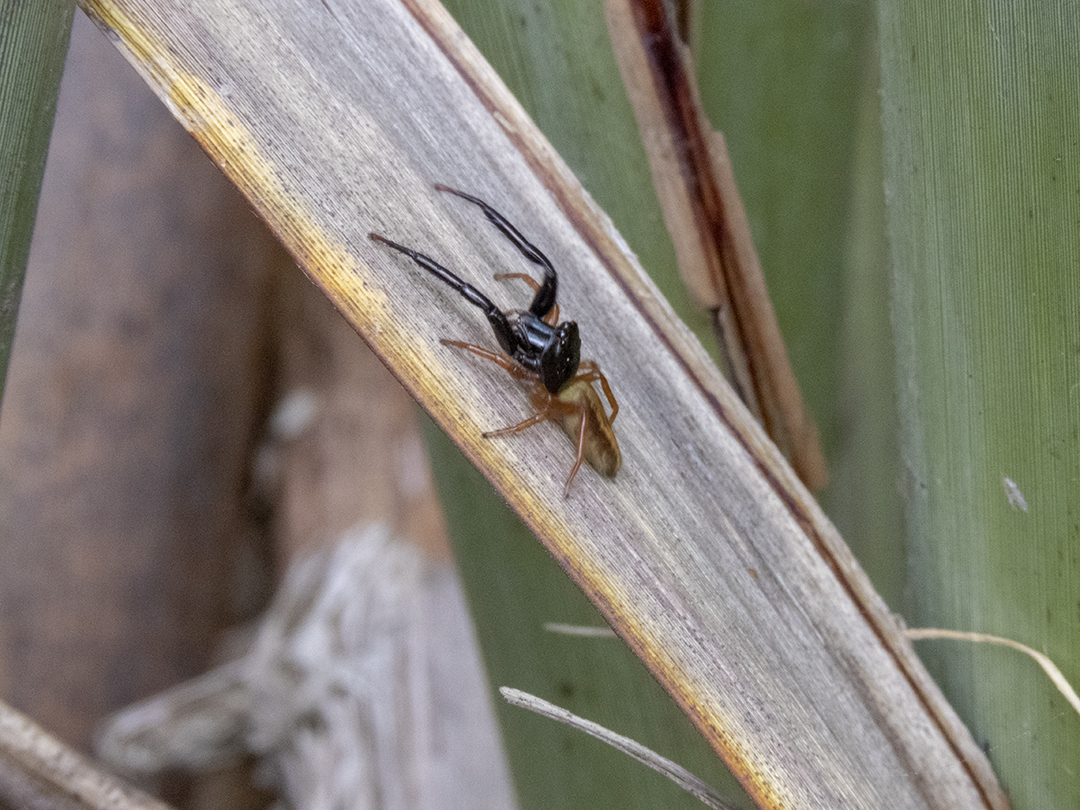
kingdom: Animalia
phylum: Arthropoda
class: Arachnida
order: Araneae
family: Salticidae
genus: Trite
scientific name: Trite planiceps
